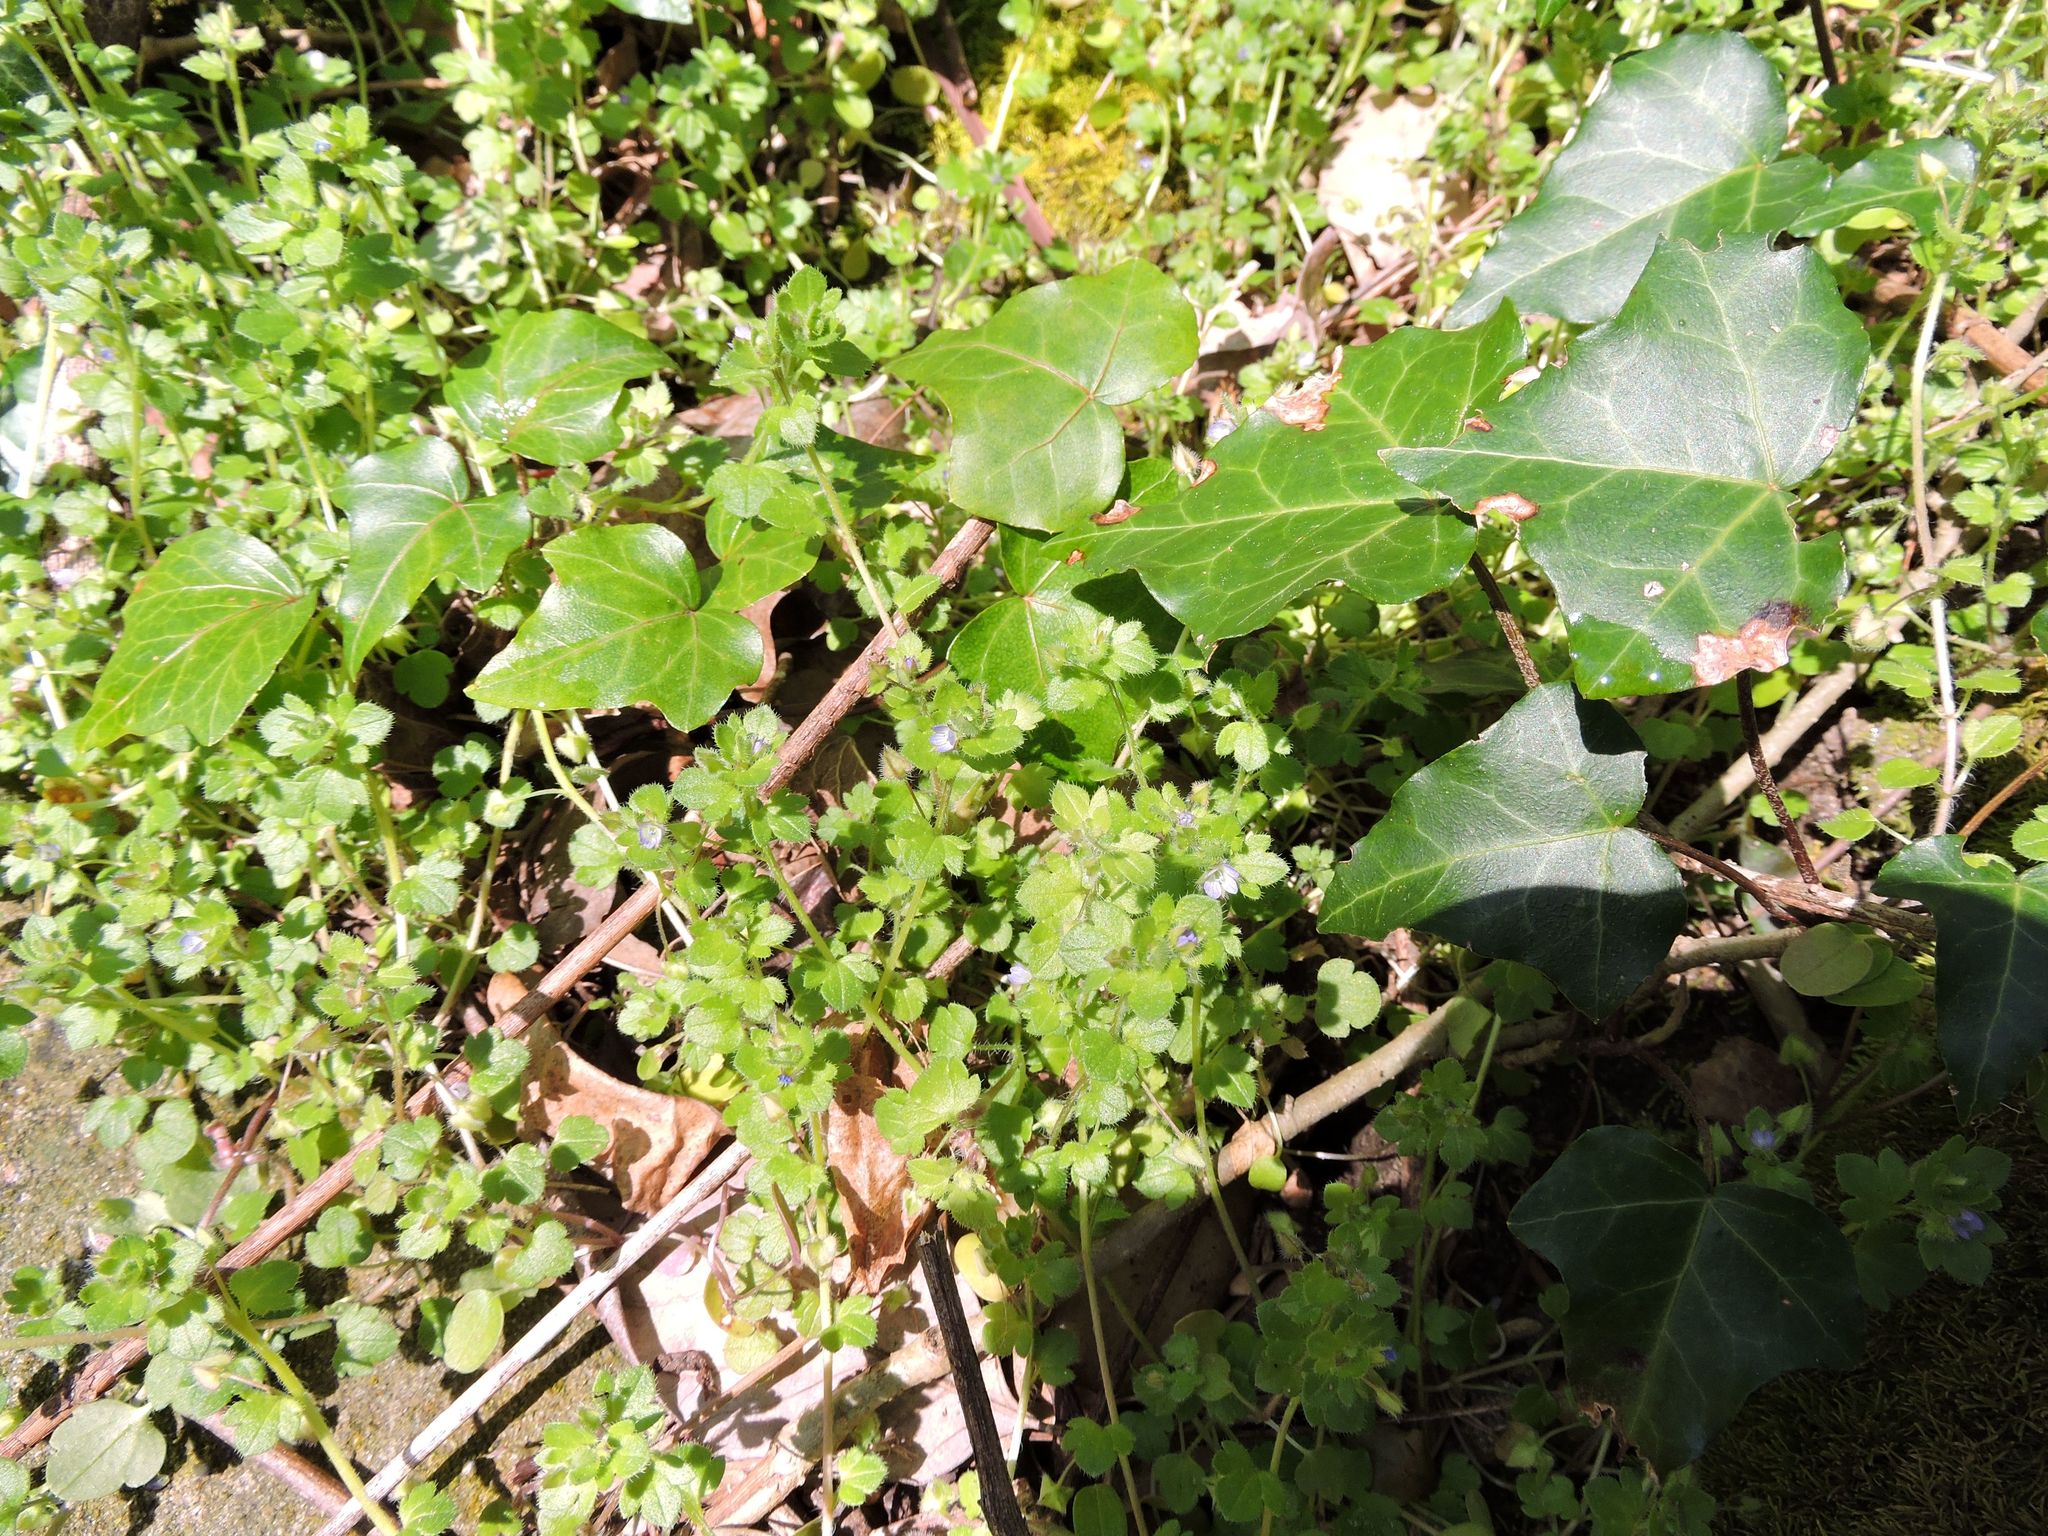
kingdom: Plantae
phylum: Tracheophyta
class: Magnoliopsida
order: Lamiales
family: Plantaginaceae
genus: Veronica
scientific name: Veronica hederifolia
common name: Ivy-leaved speedwell
